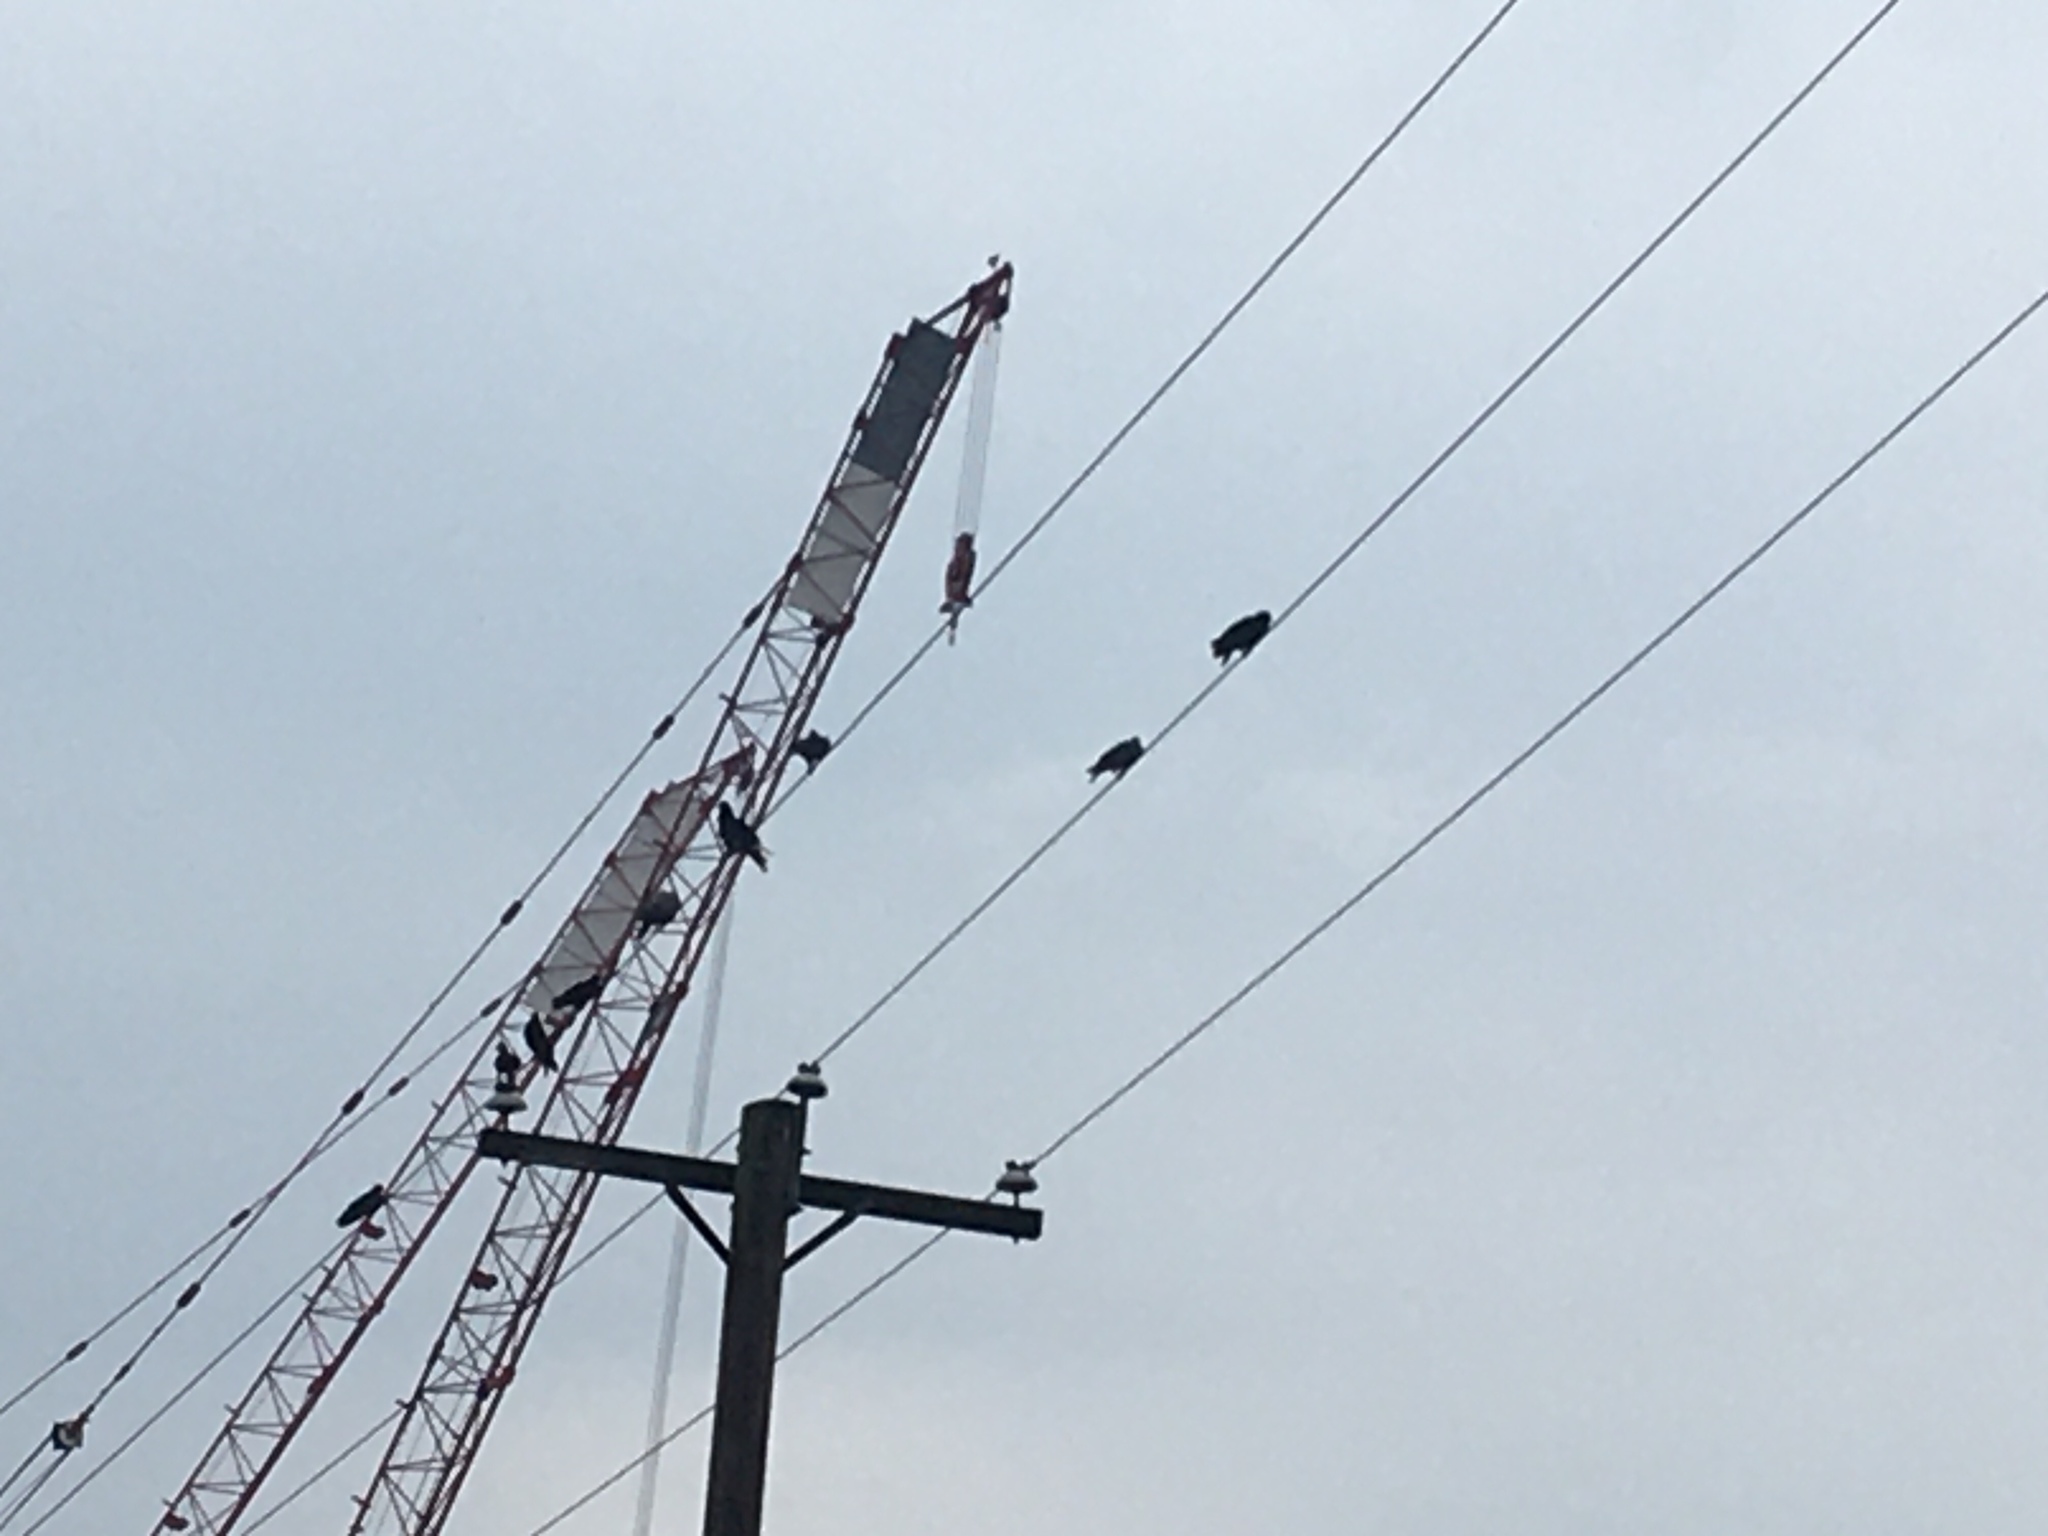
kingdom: Animalia
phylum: Chordata
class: Aves
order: Passeriformes
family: Corvidae
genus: Corvus
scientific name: Corvus brachyrhynchos
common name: American crow
